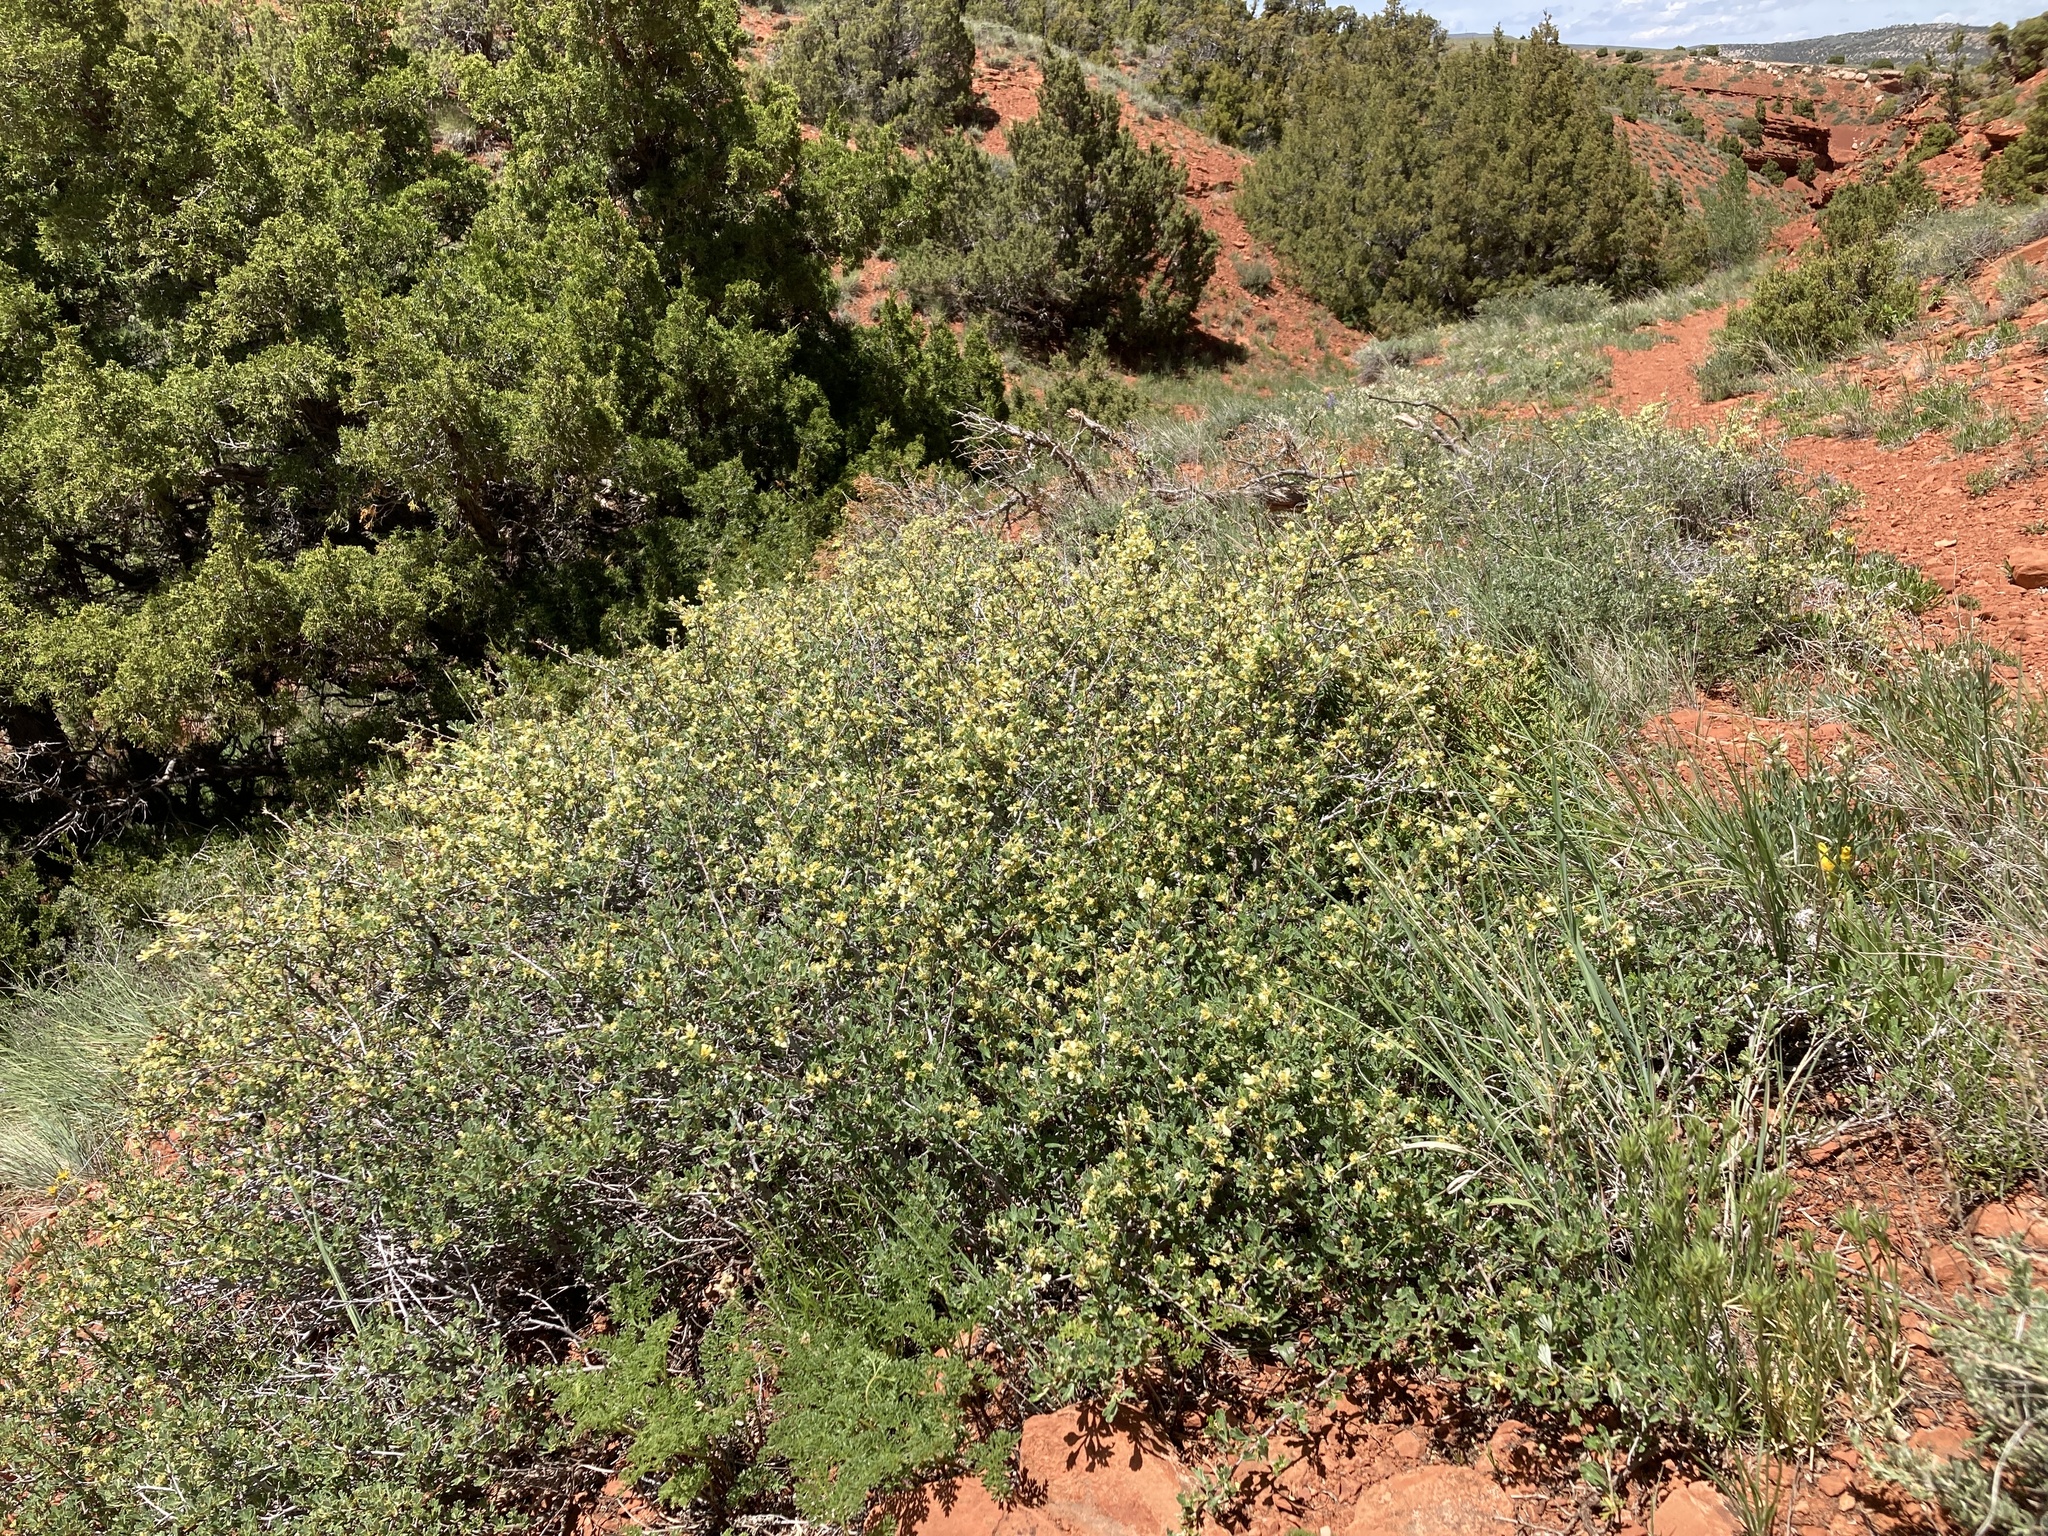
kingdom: Plantae
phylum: Tracheophyta
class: Magnoliopsida
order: Rosales
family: Rosaceae
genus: Purshia
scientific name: Purshia tridentata
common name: Antelope bitterbrush
